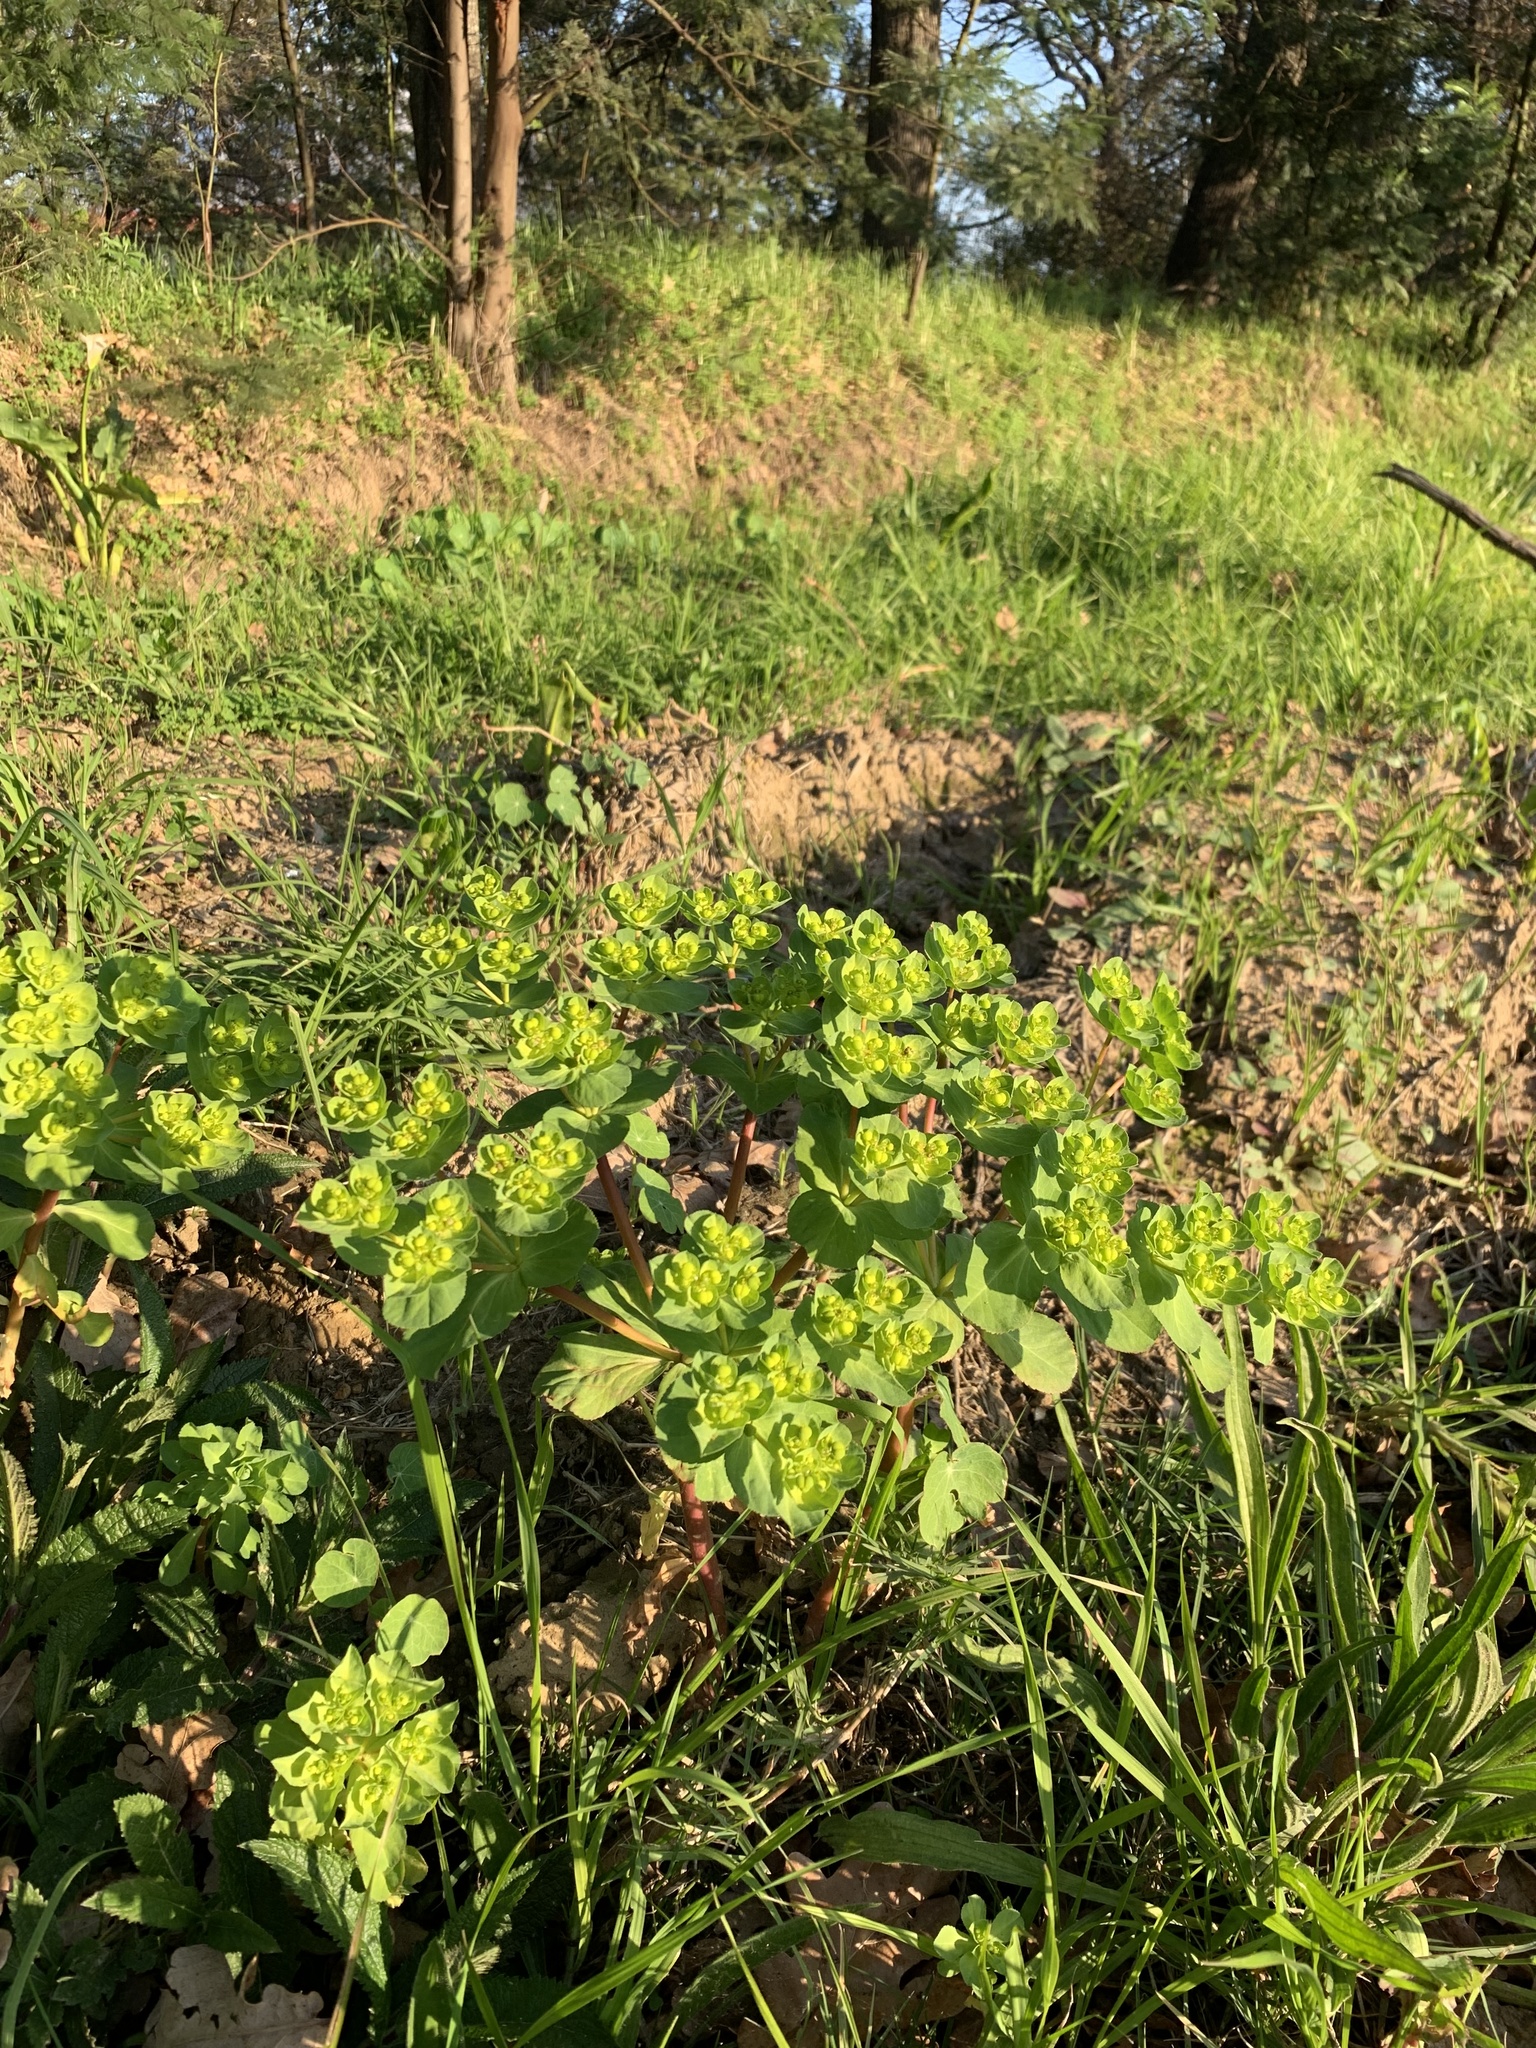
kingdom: Plantae
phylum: Tracheophyta
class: Magnoliopsida
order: Malpighiales
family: Euphorbiaceae
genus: Euphorbia
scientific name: Euphorbia helioscopia
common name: Sun spurge
